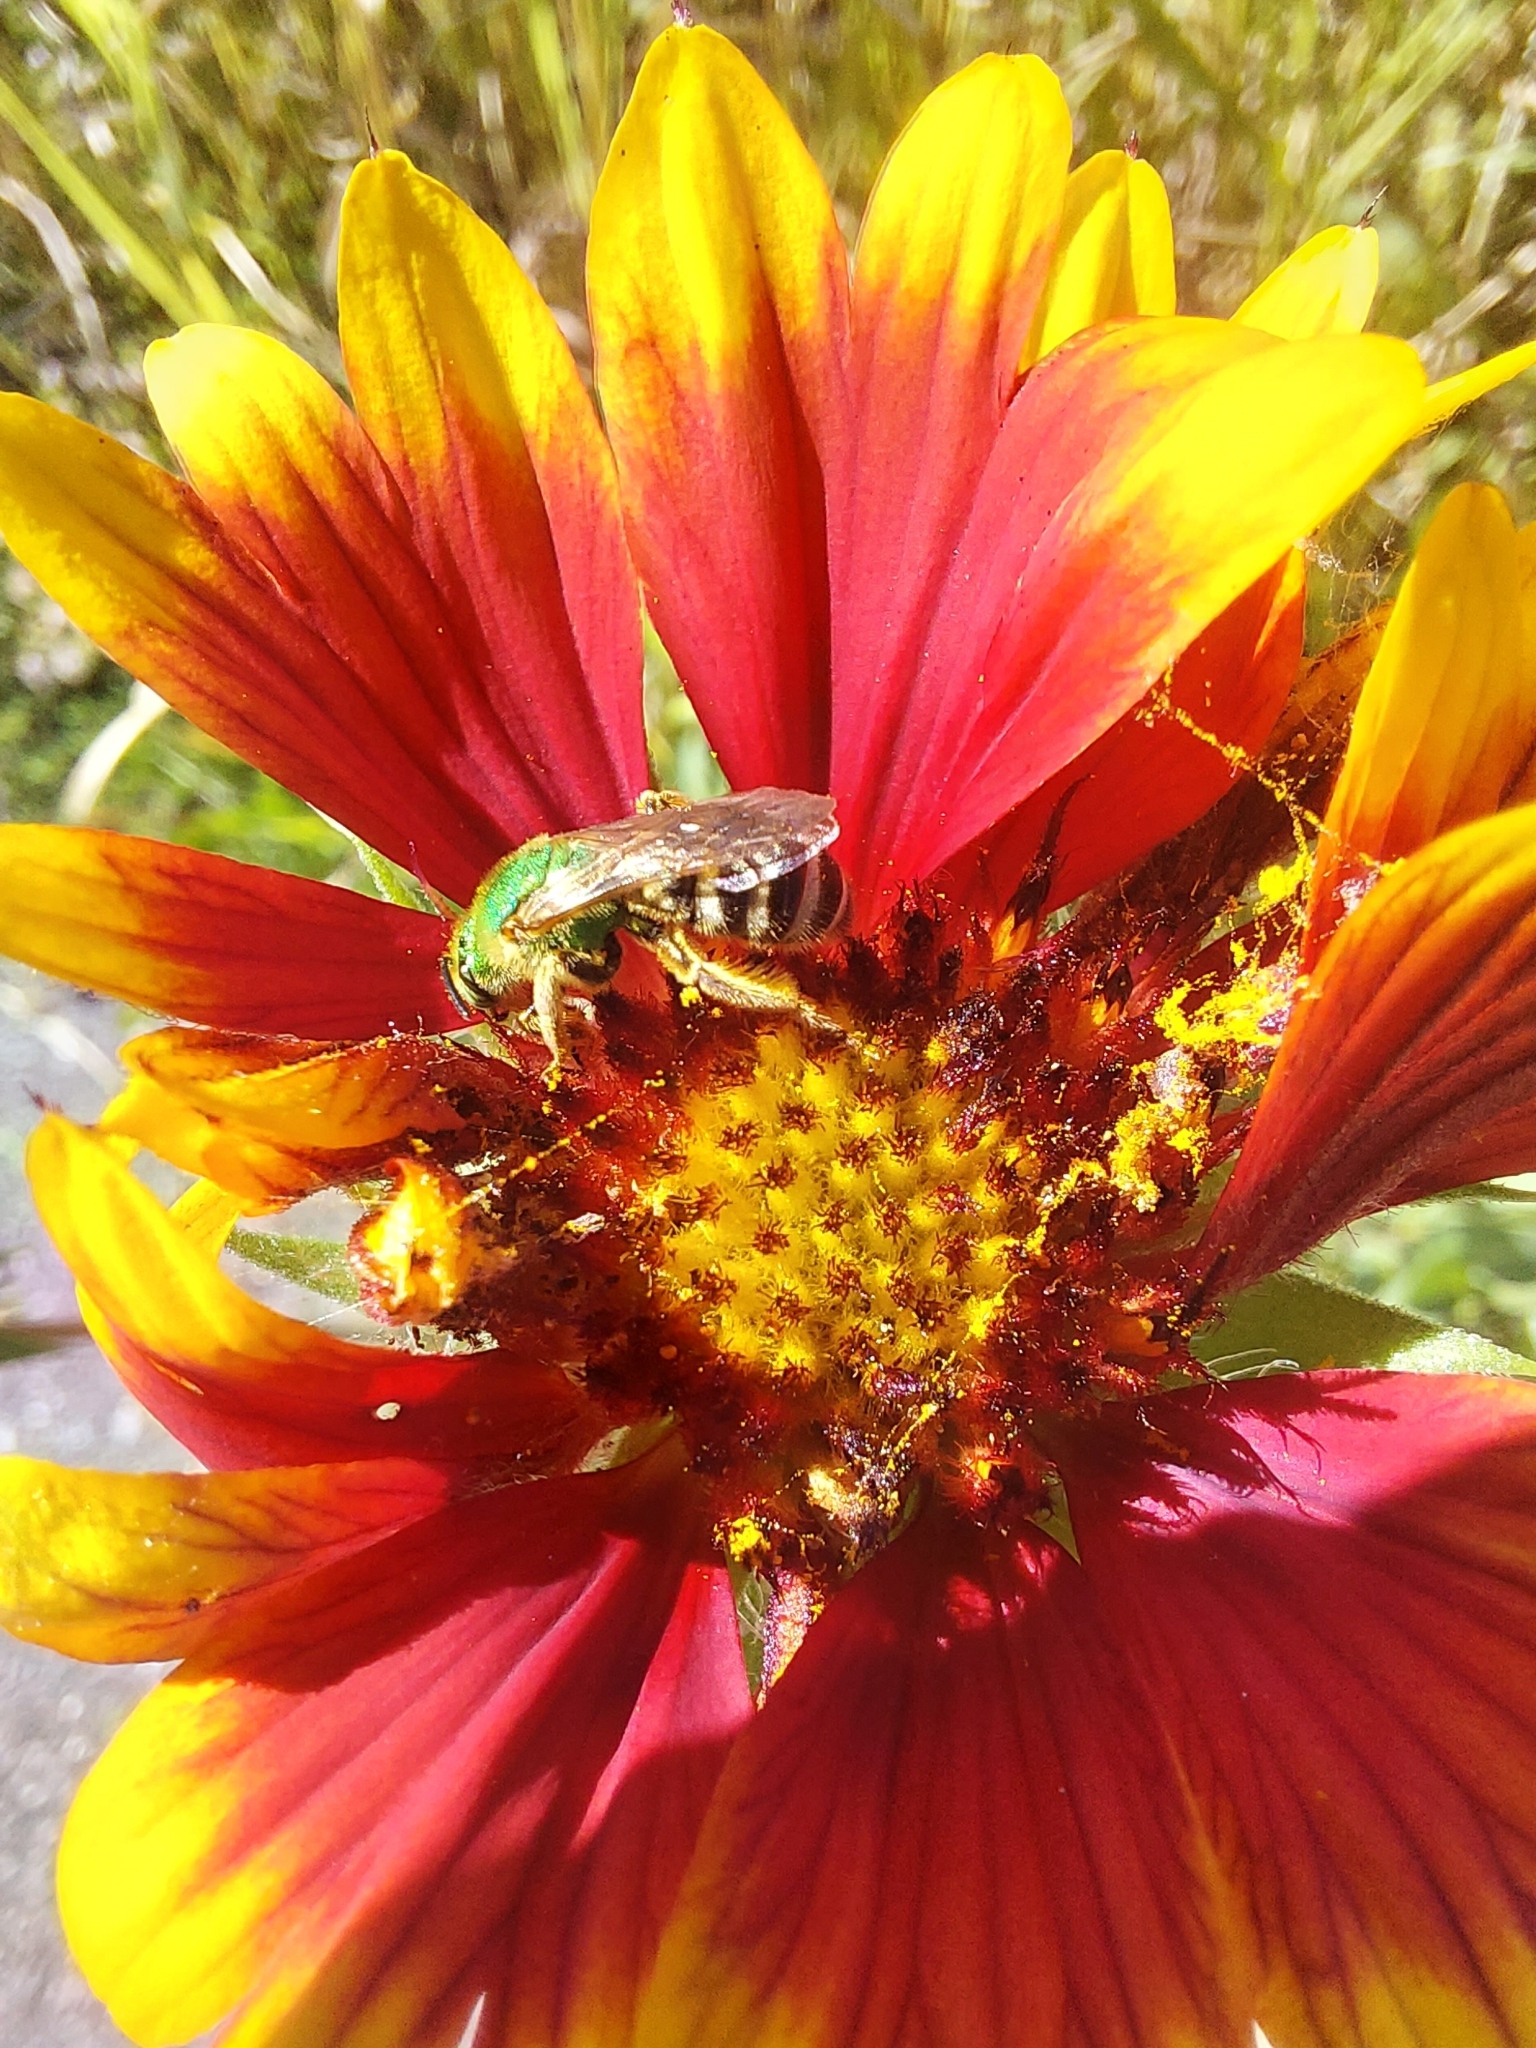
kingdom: Animalia
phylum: Arthropoda
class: Insecta
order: Hymenoptera
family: Halictidae
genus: Agapostemon
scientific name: Agapostemon virescens
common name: Bicolored striped sweat bee
